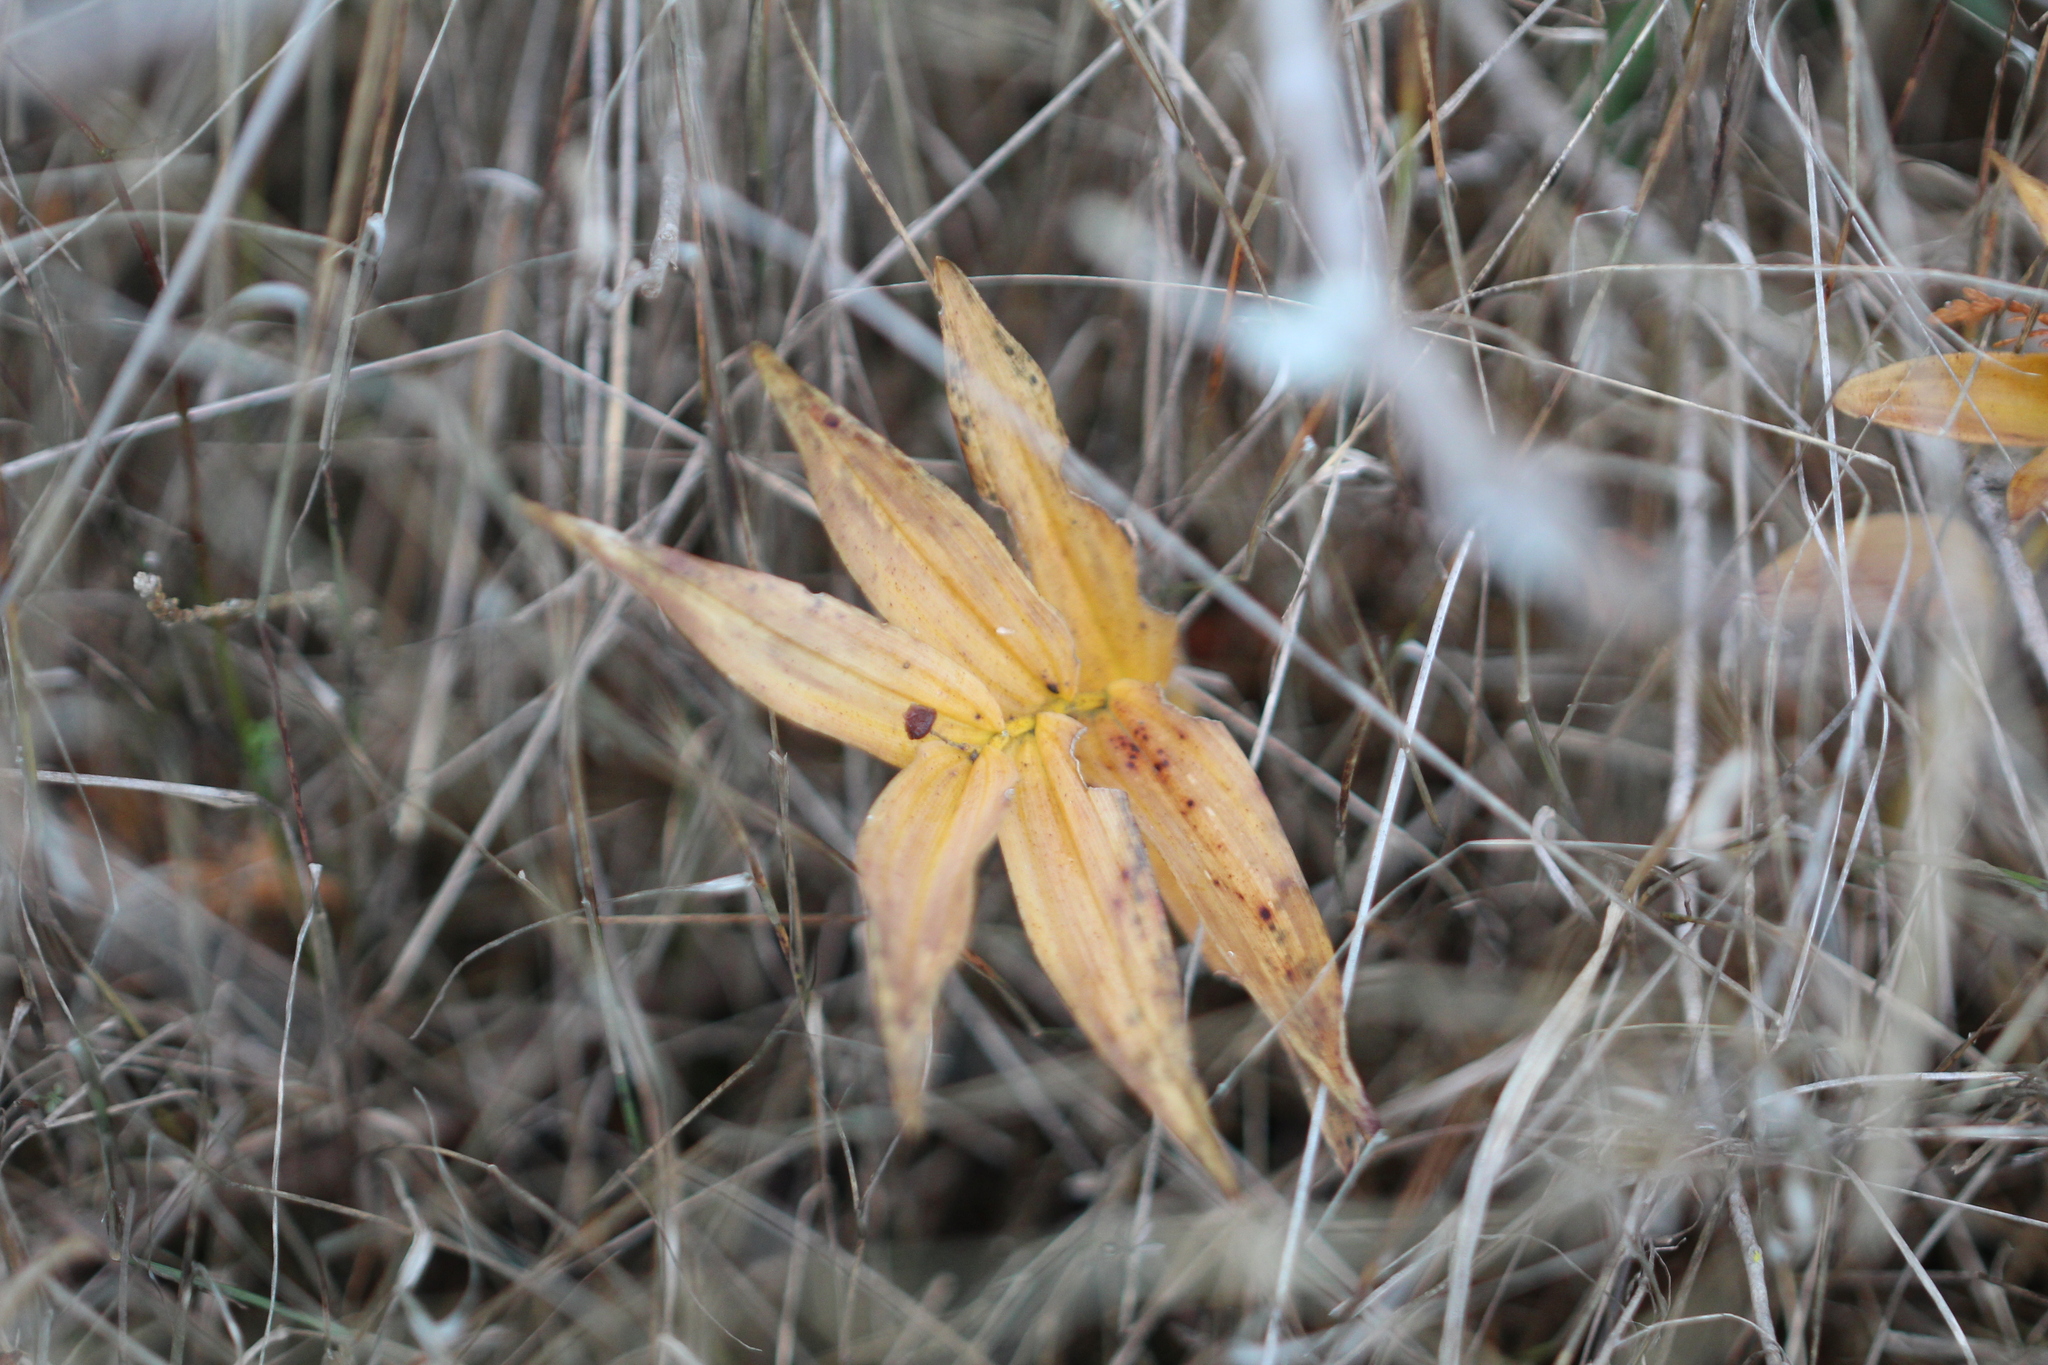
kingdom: Plantae
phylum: Tracheophyta
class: Liliopsida
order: Asparagales
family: Asparagaceae
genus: Maianthemum
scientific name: Maianthemum stellatum
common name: Little false solomon's seal
